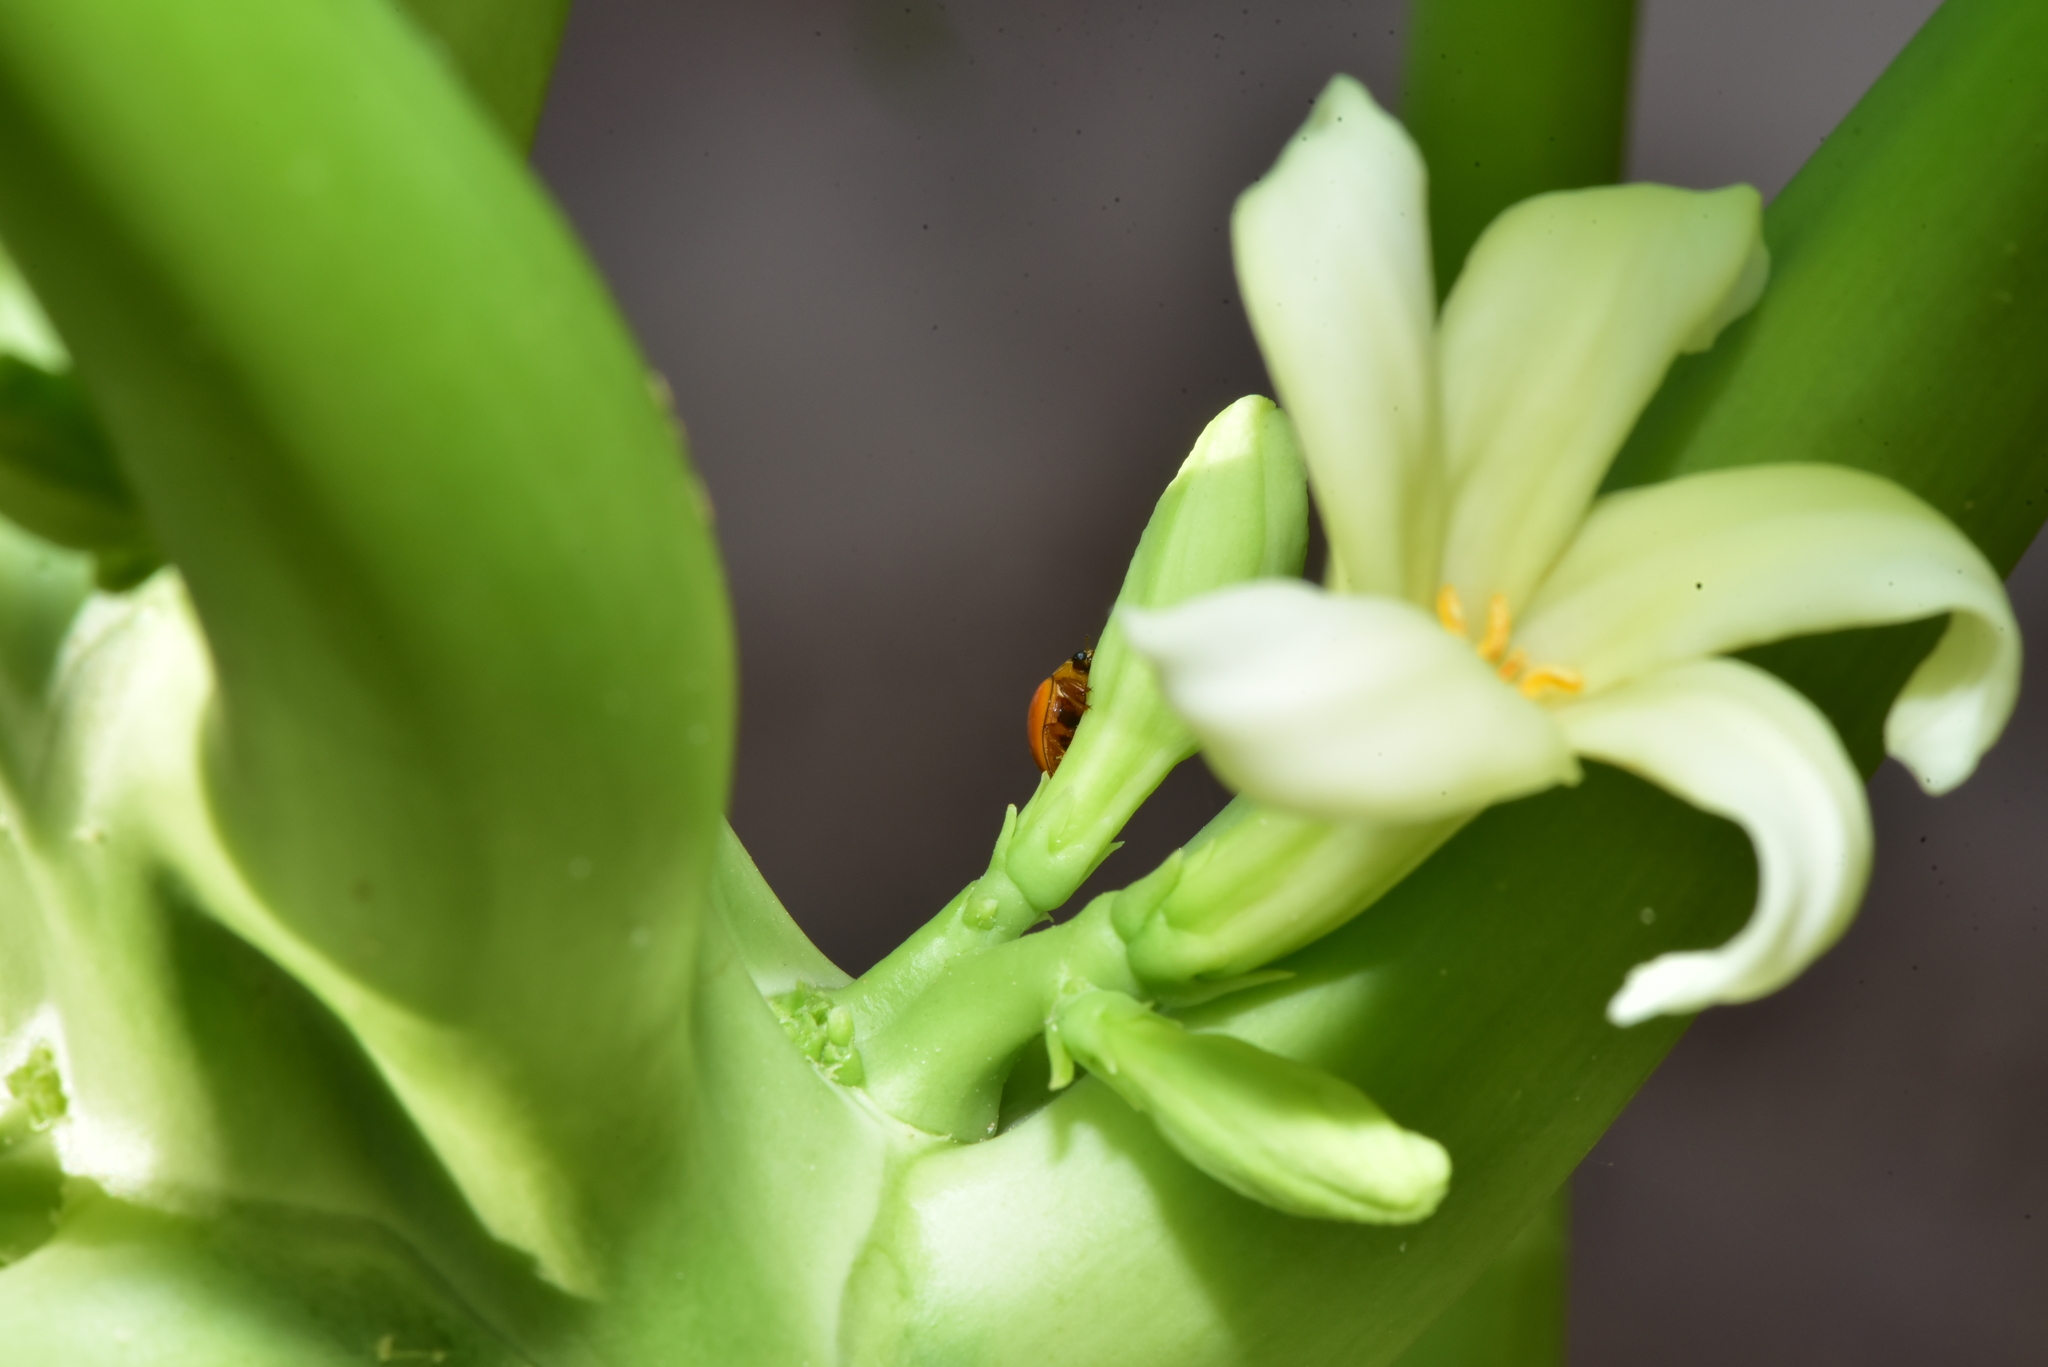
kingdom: Animalia
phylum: Arthropoda
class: Insecta
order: Coleoptera
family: Coccinellidae
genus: Micraspis
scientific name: Micraspis discolor
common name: Lady beetle
